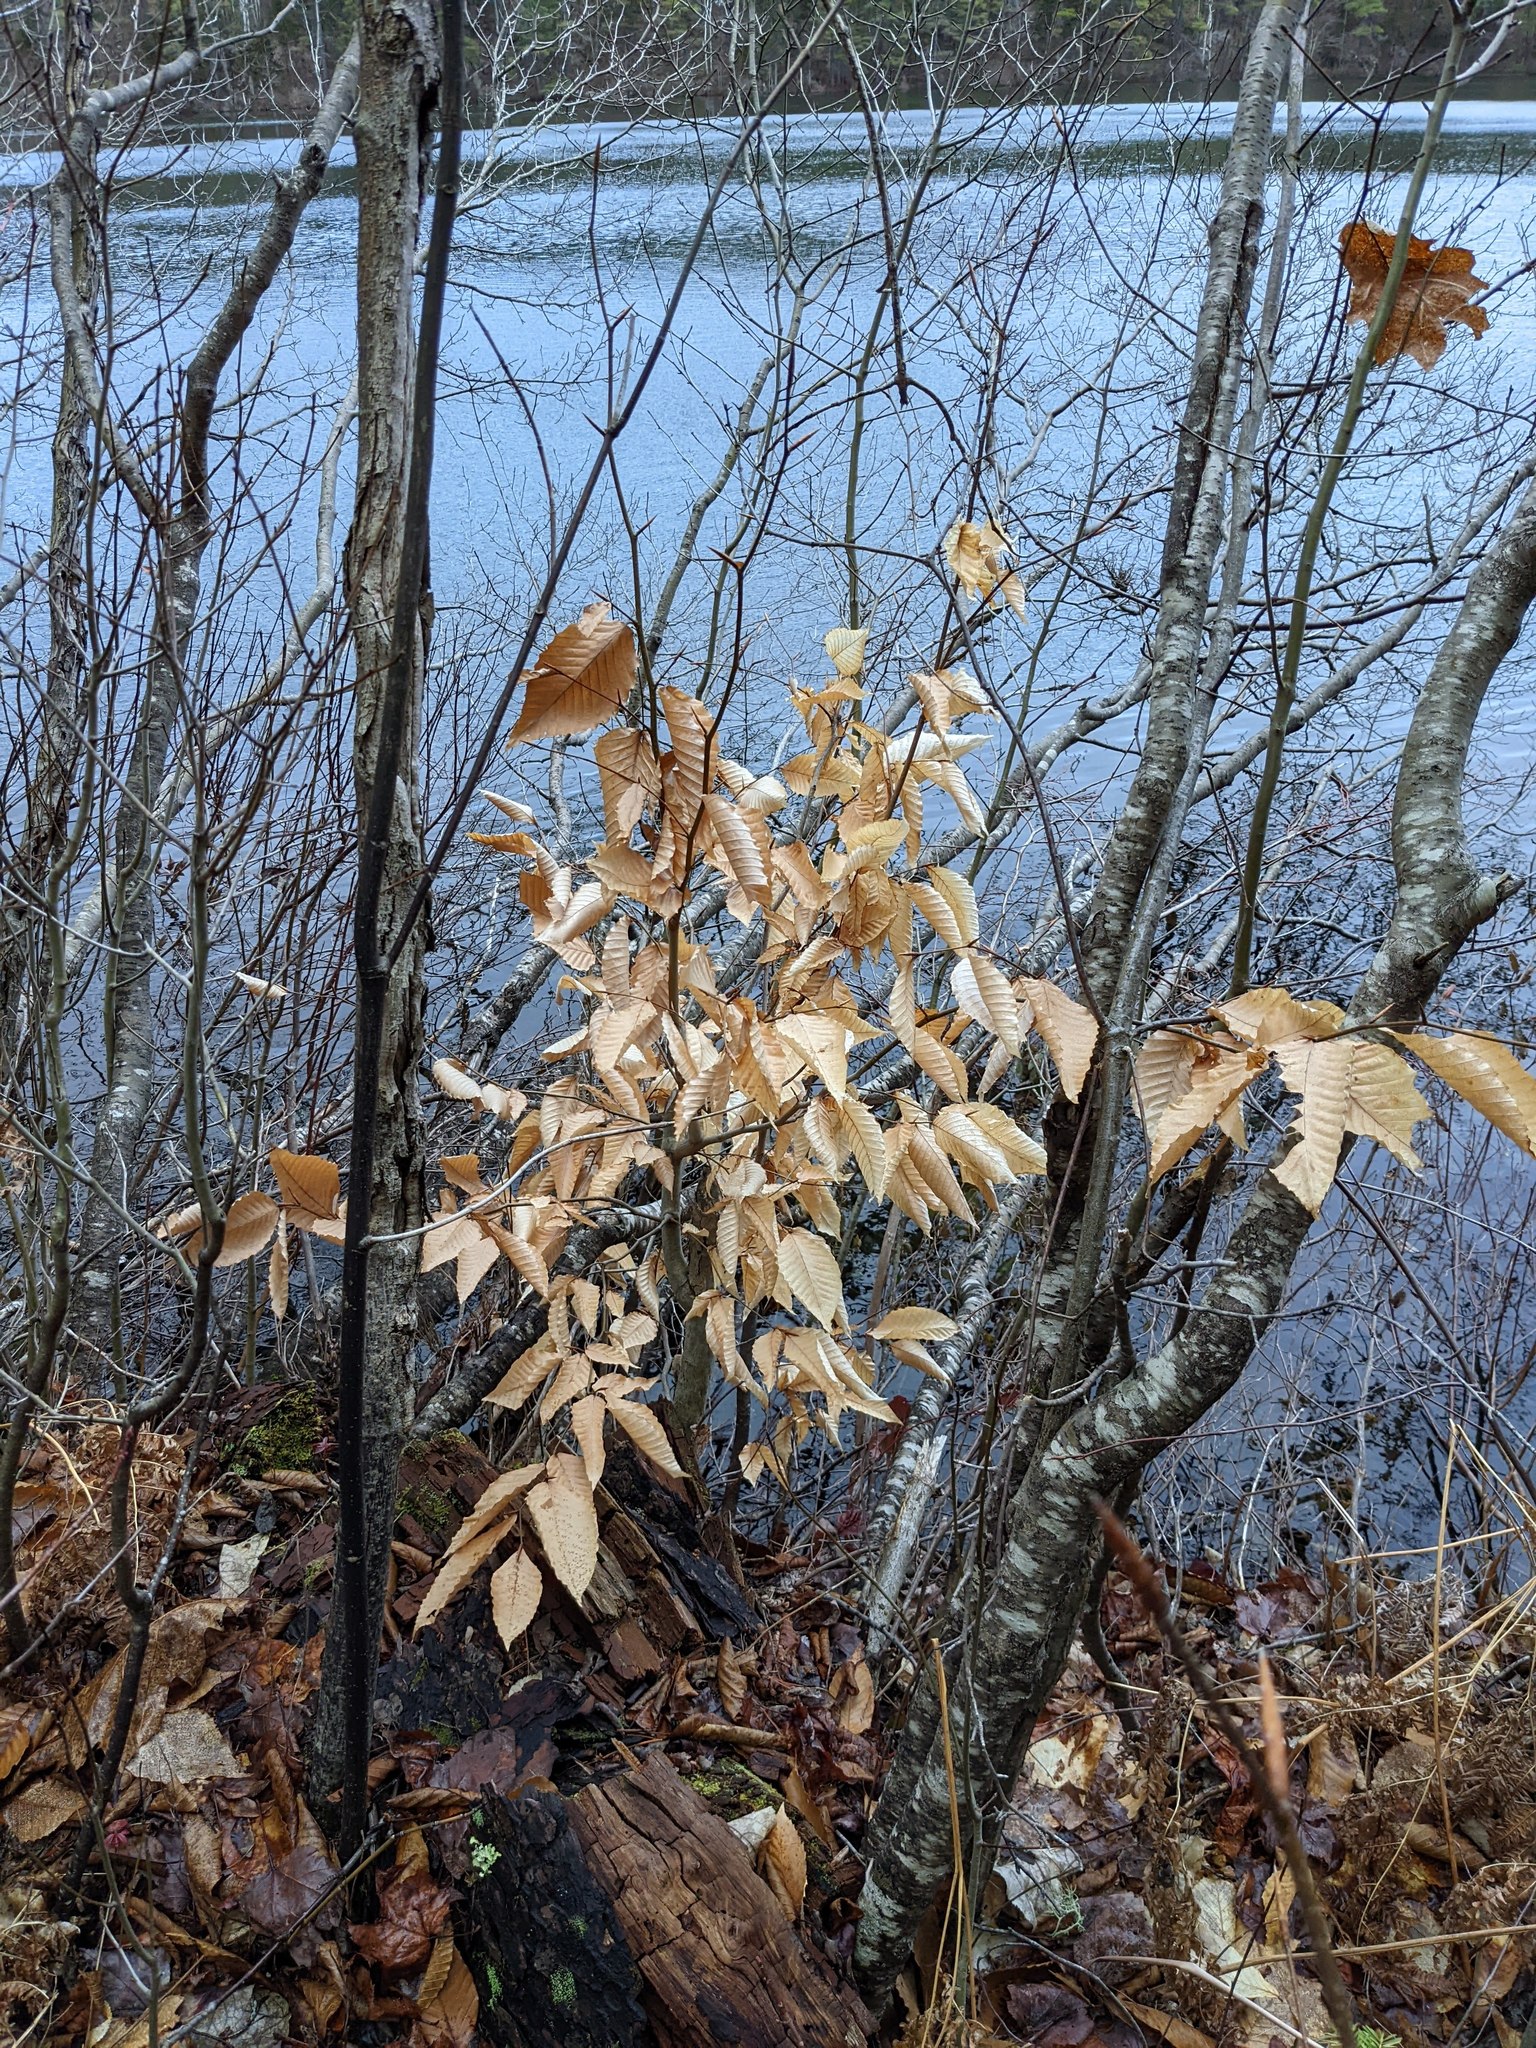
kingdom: Plantae
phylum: Tracheophyta
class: Magnoliopsida
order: Fagales
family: Fagaceae
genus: Fagus
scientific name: Fagus grandifolia
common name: American beech
